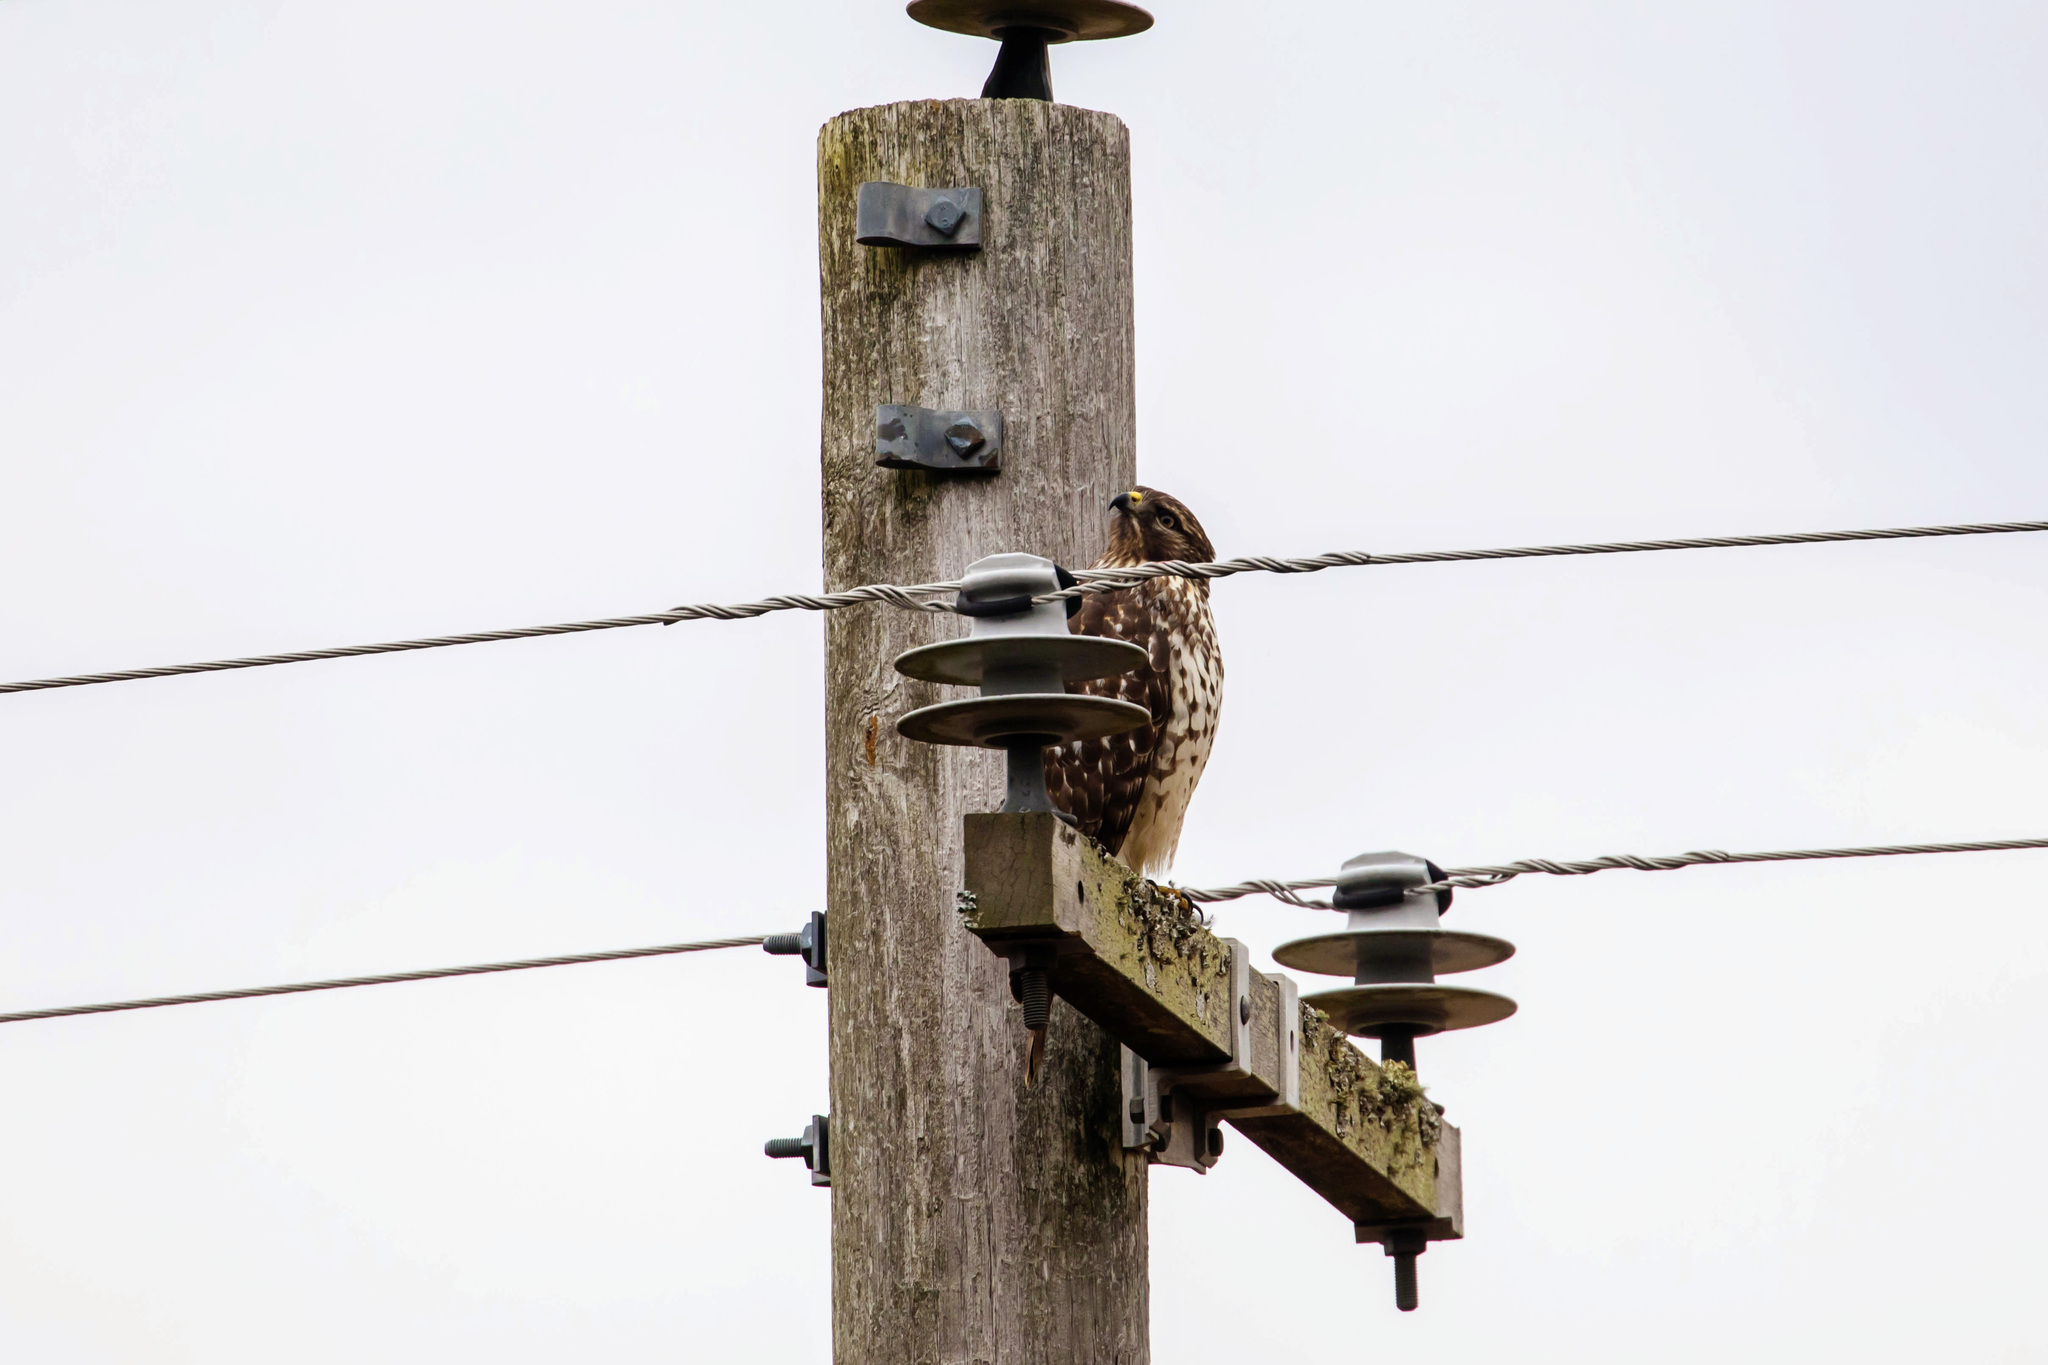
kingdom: Animalia
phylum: Chordata
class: Aves
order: Accipitriformes
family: Accipitridae
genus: Buteo
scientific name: Buteo lineatus
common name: Red-shouldered hawk
